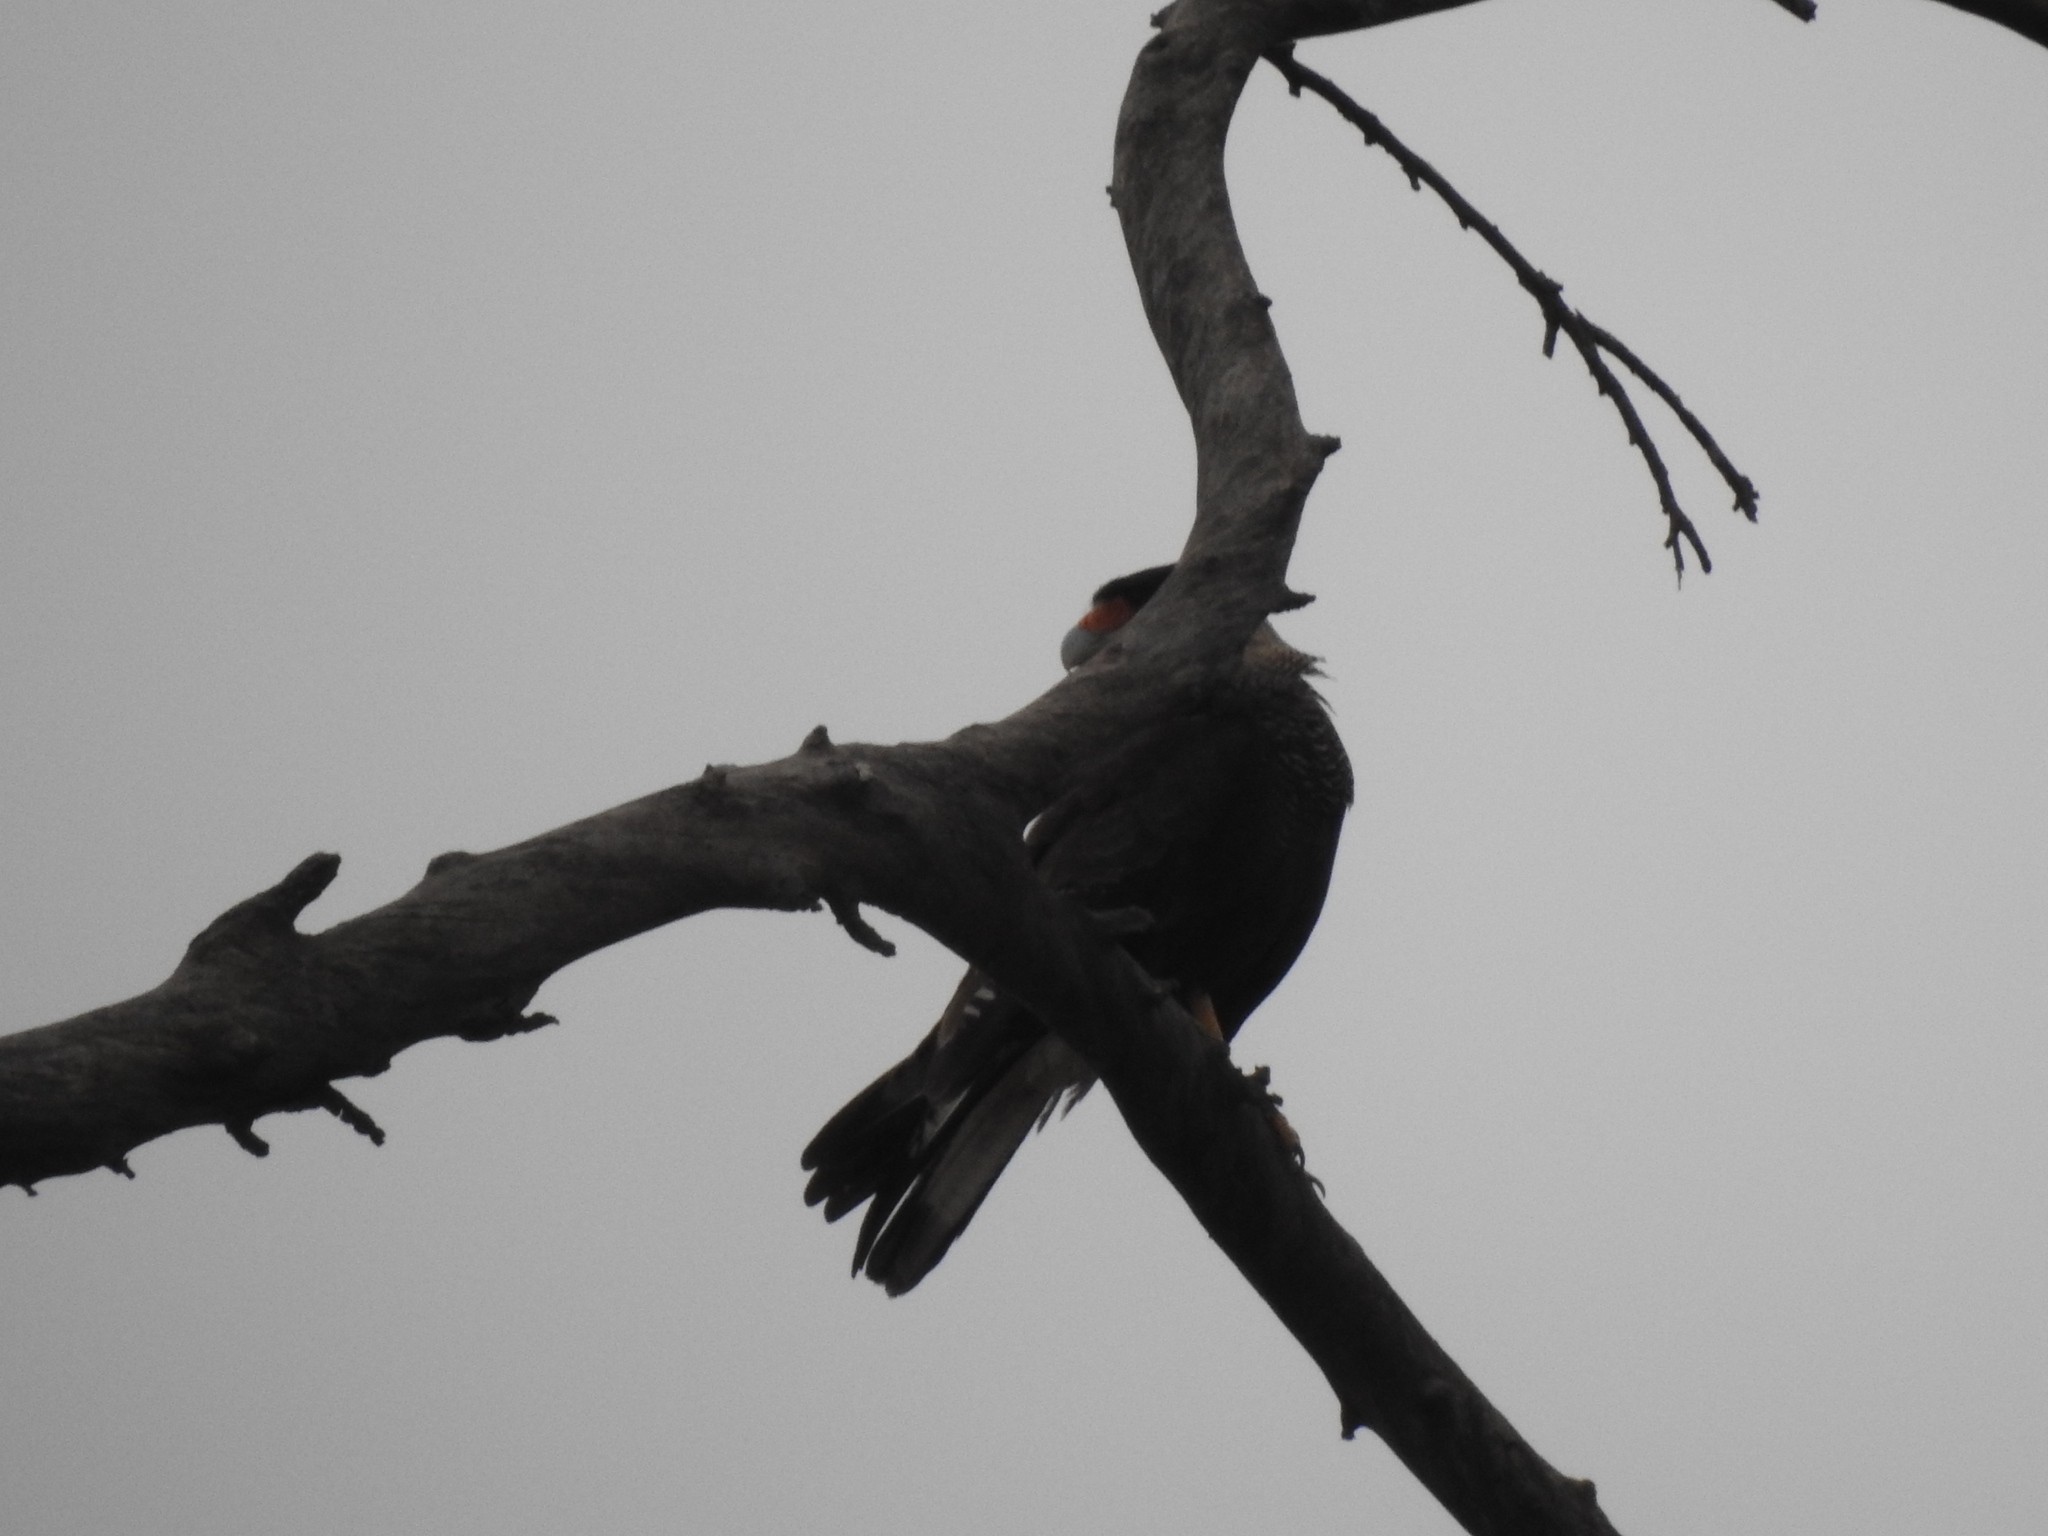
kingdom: Animalia
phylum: Chordata
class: Aves
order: Falconiformes
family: Falconidae
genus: Caracara
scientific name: Caracara plancus
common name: Southern caracara
